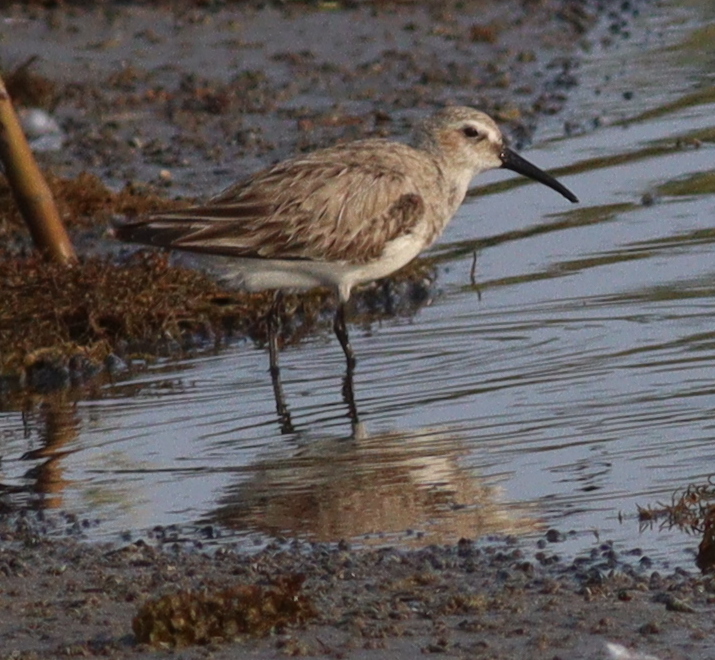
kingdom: Animalia
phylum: Chordata
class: Aves
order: Charadriiformes
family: Scolopacidae
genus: Calidris
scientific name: Calidris ferruginea
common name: Curlew sandpiper
